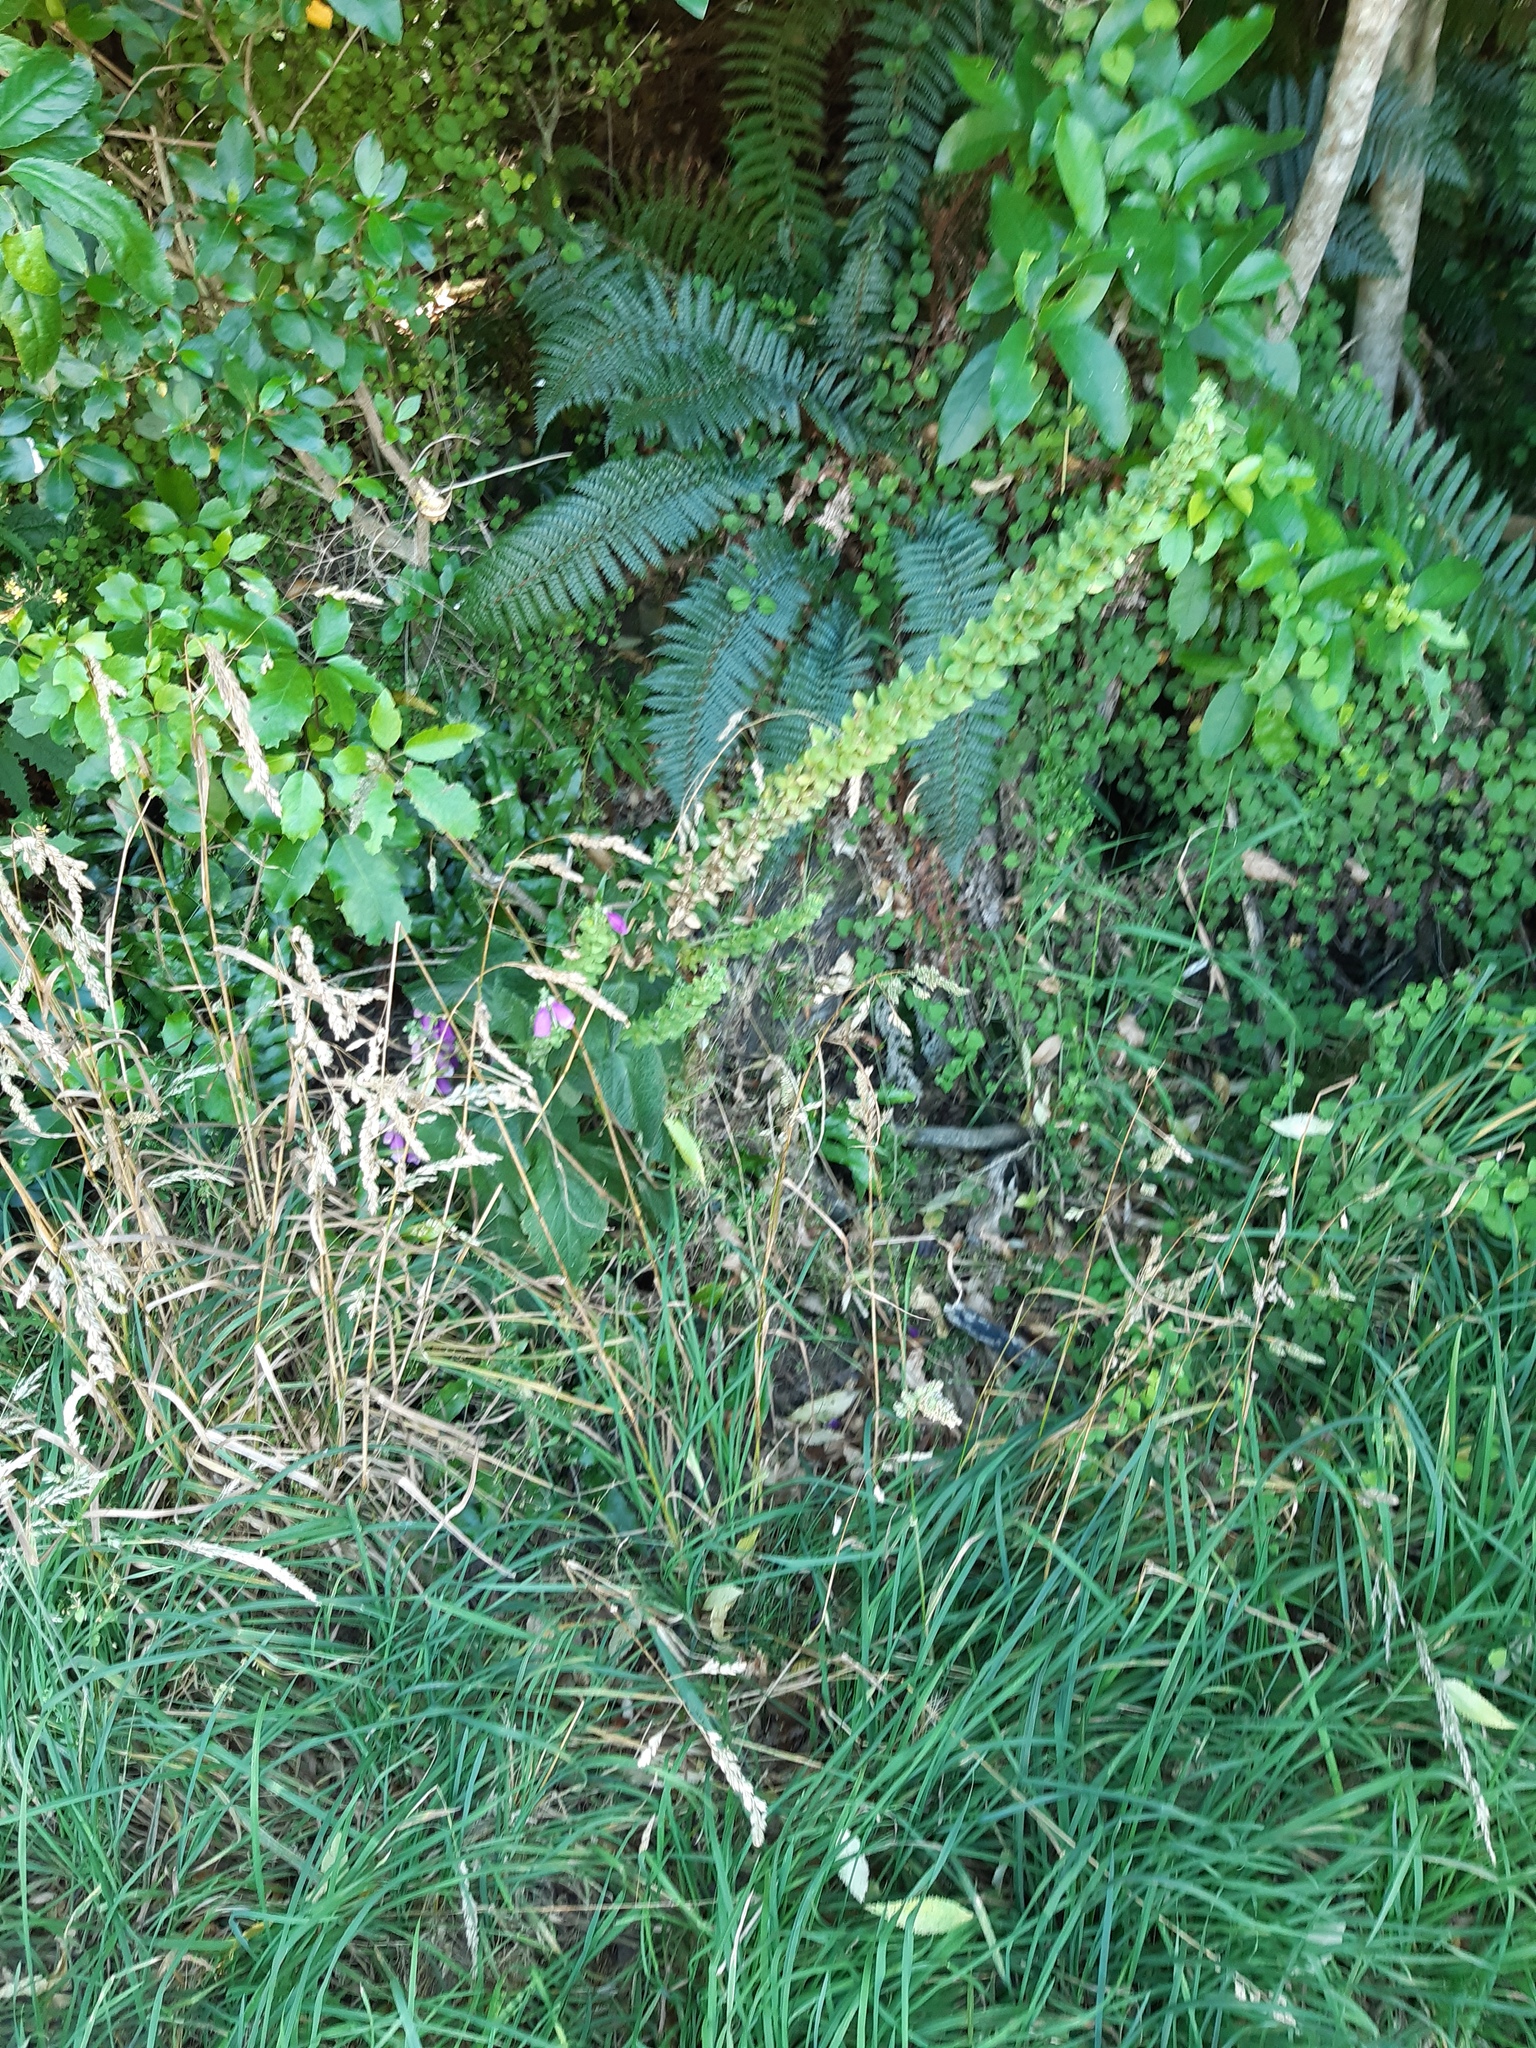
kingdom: Plantae
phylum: Tracheophyta
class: Magnoliopsida
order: Lamiales
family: Plantaginaceae
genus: Digitalis
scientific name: Digitalis purpurea
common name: Foxglove
